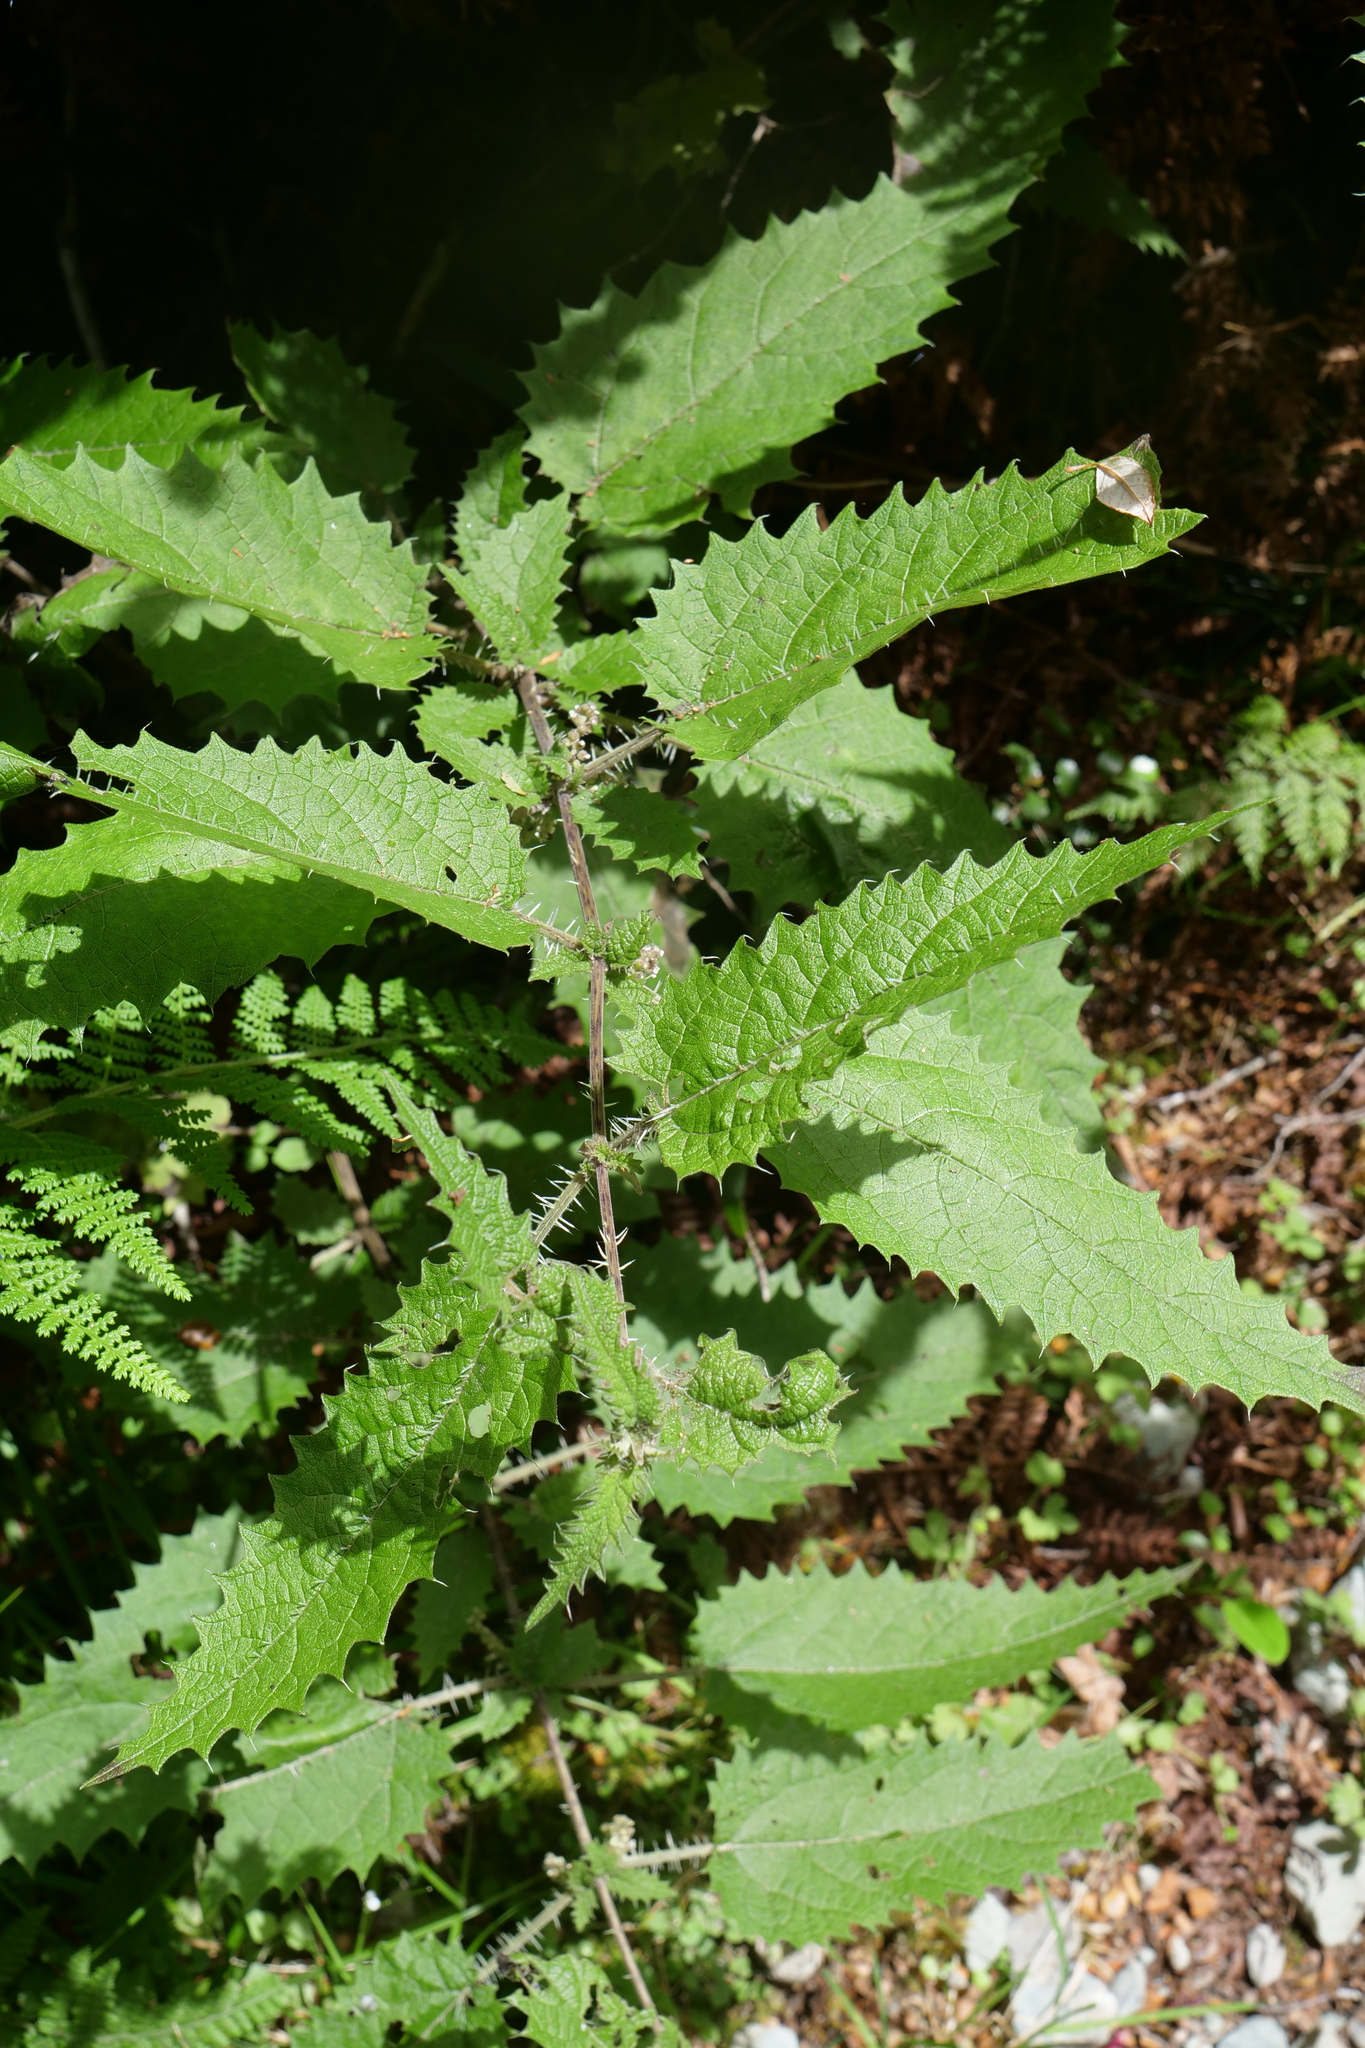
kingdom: Plantae
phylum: Tracheophyta
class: Magnoliopsida
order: Rosales
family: Urticaceae
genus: Urtica
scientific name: Urtica ferox
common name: Tree nettle
